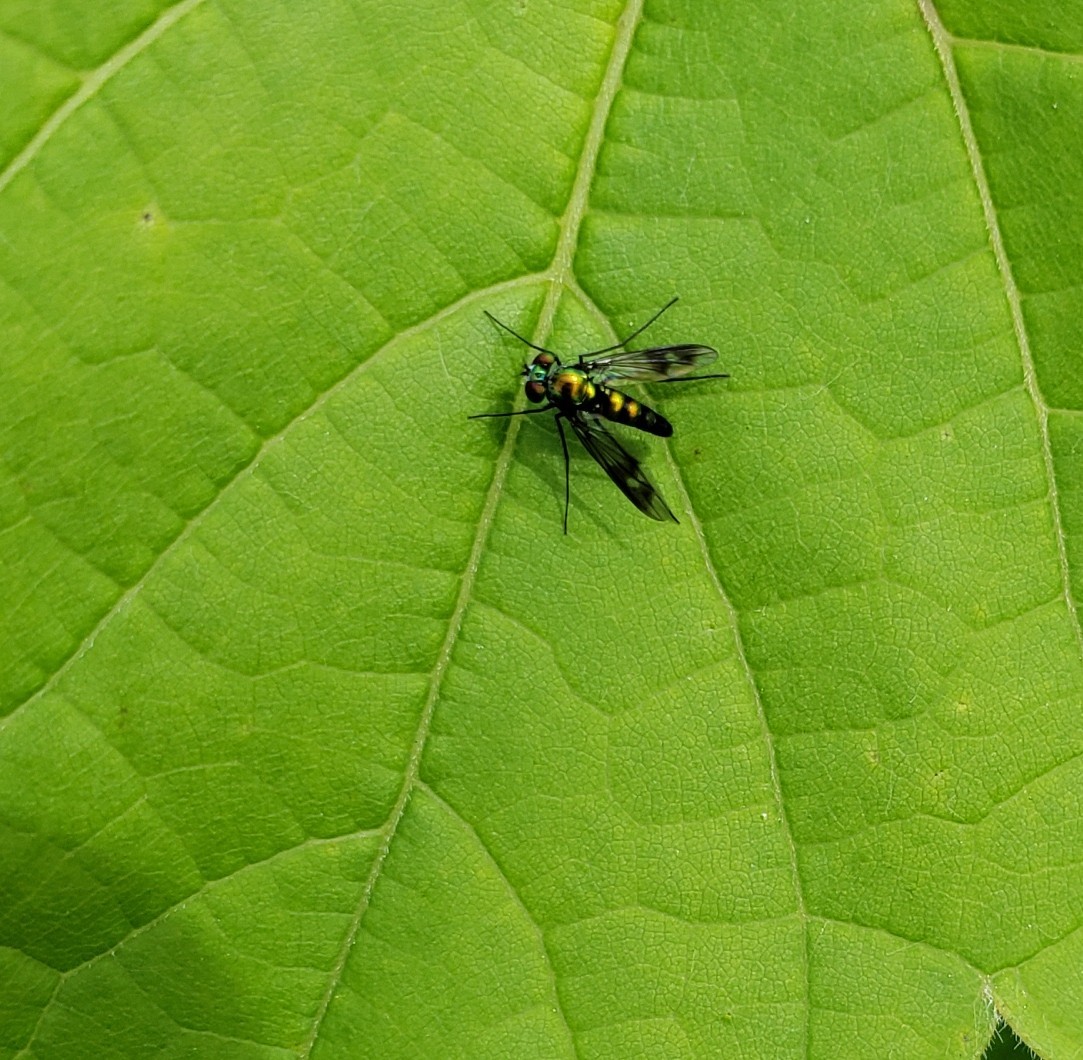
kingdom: Animalia
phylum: Arthropoda
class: Insecta
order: Diptera
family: Dolichopodidae
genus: Condylostylus
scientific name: Condylostylus patibulatus
